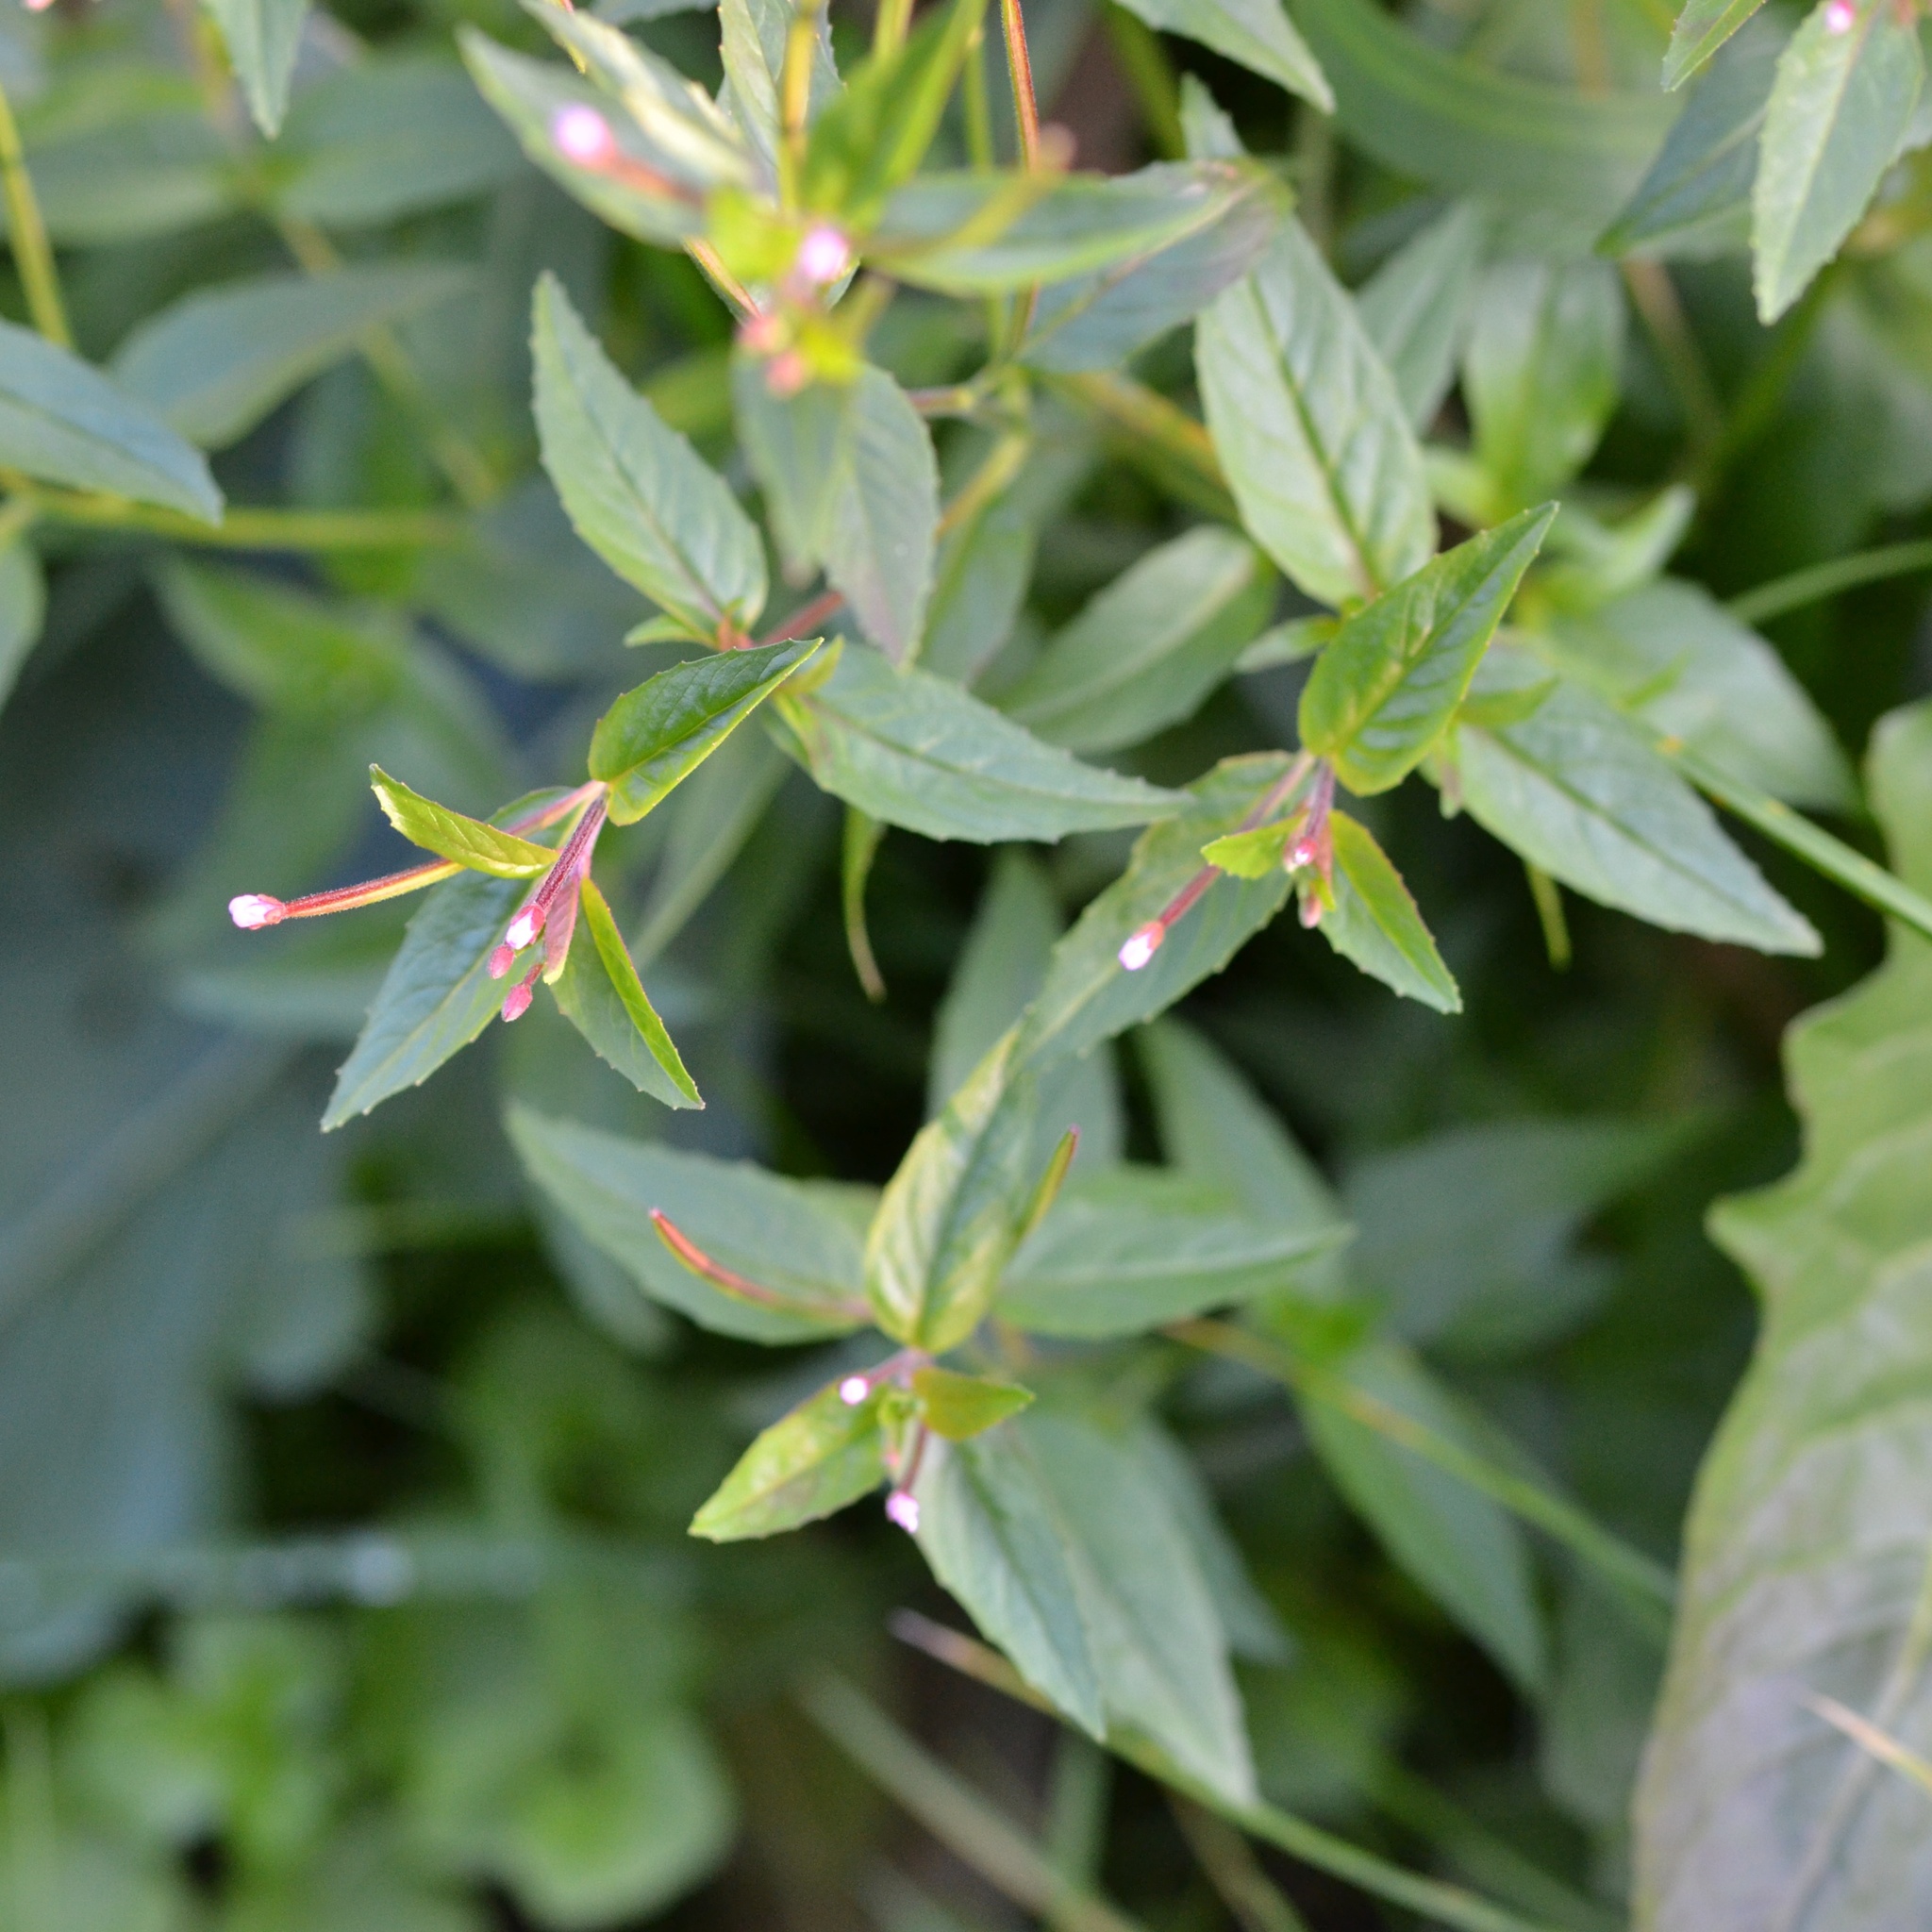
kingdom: Plantae
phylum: Tracheophyta
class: Magnoliopsida
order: Myrtales
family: Onagraceae
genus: Epilobium
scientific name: Epilobium ciliatum
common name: American willowherb
